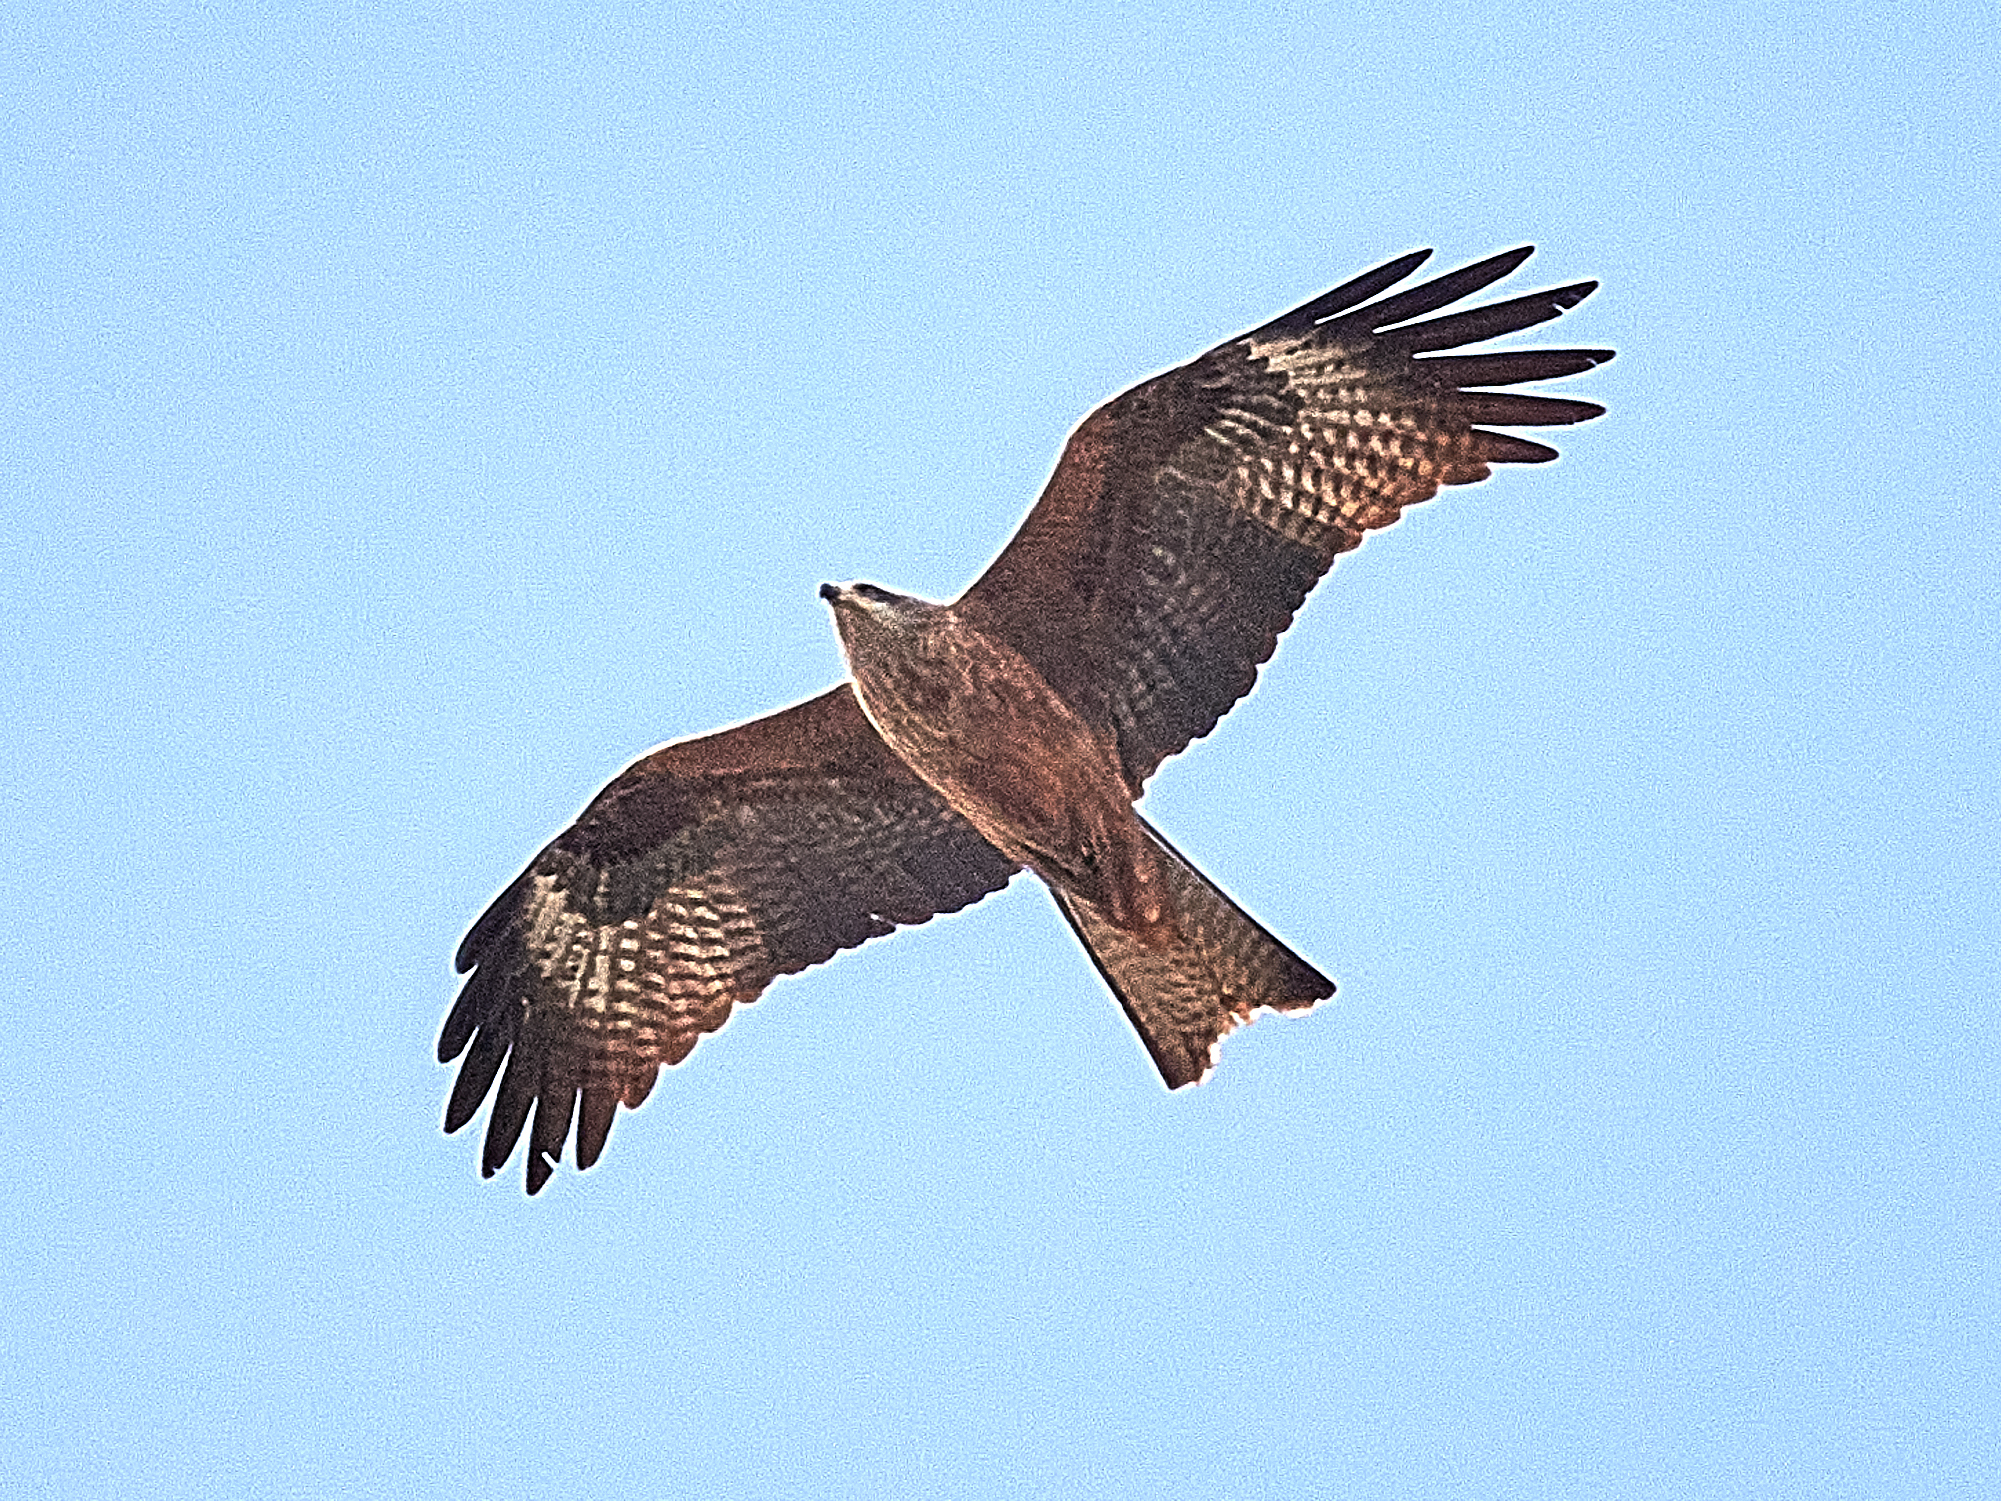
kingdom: Animalia
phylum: Chordata
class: Aves
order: Accipitriformes
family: Accipitridae
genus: Milvus
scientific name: Milvus migrans
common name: Black kite
